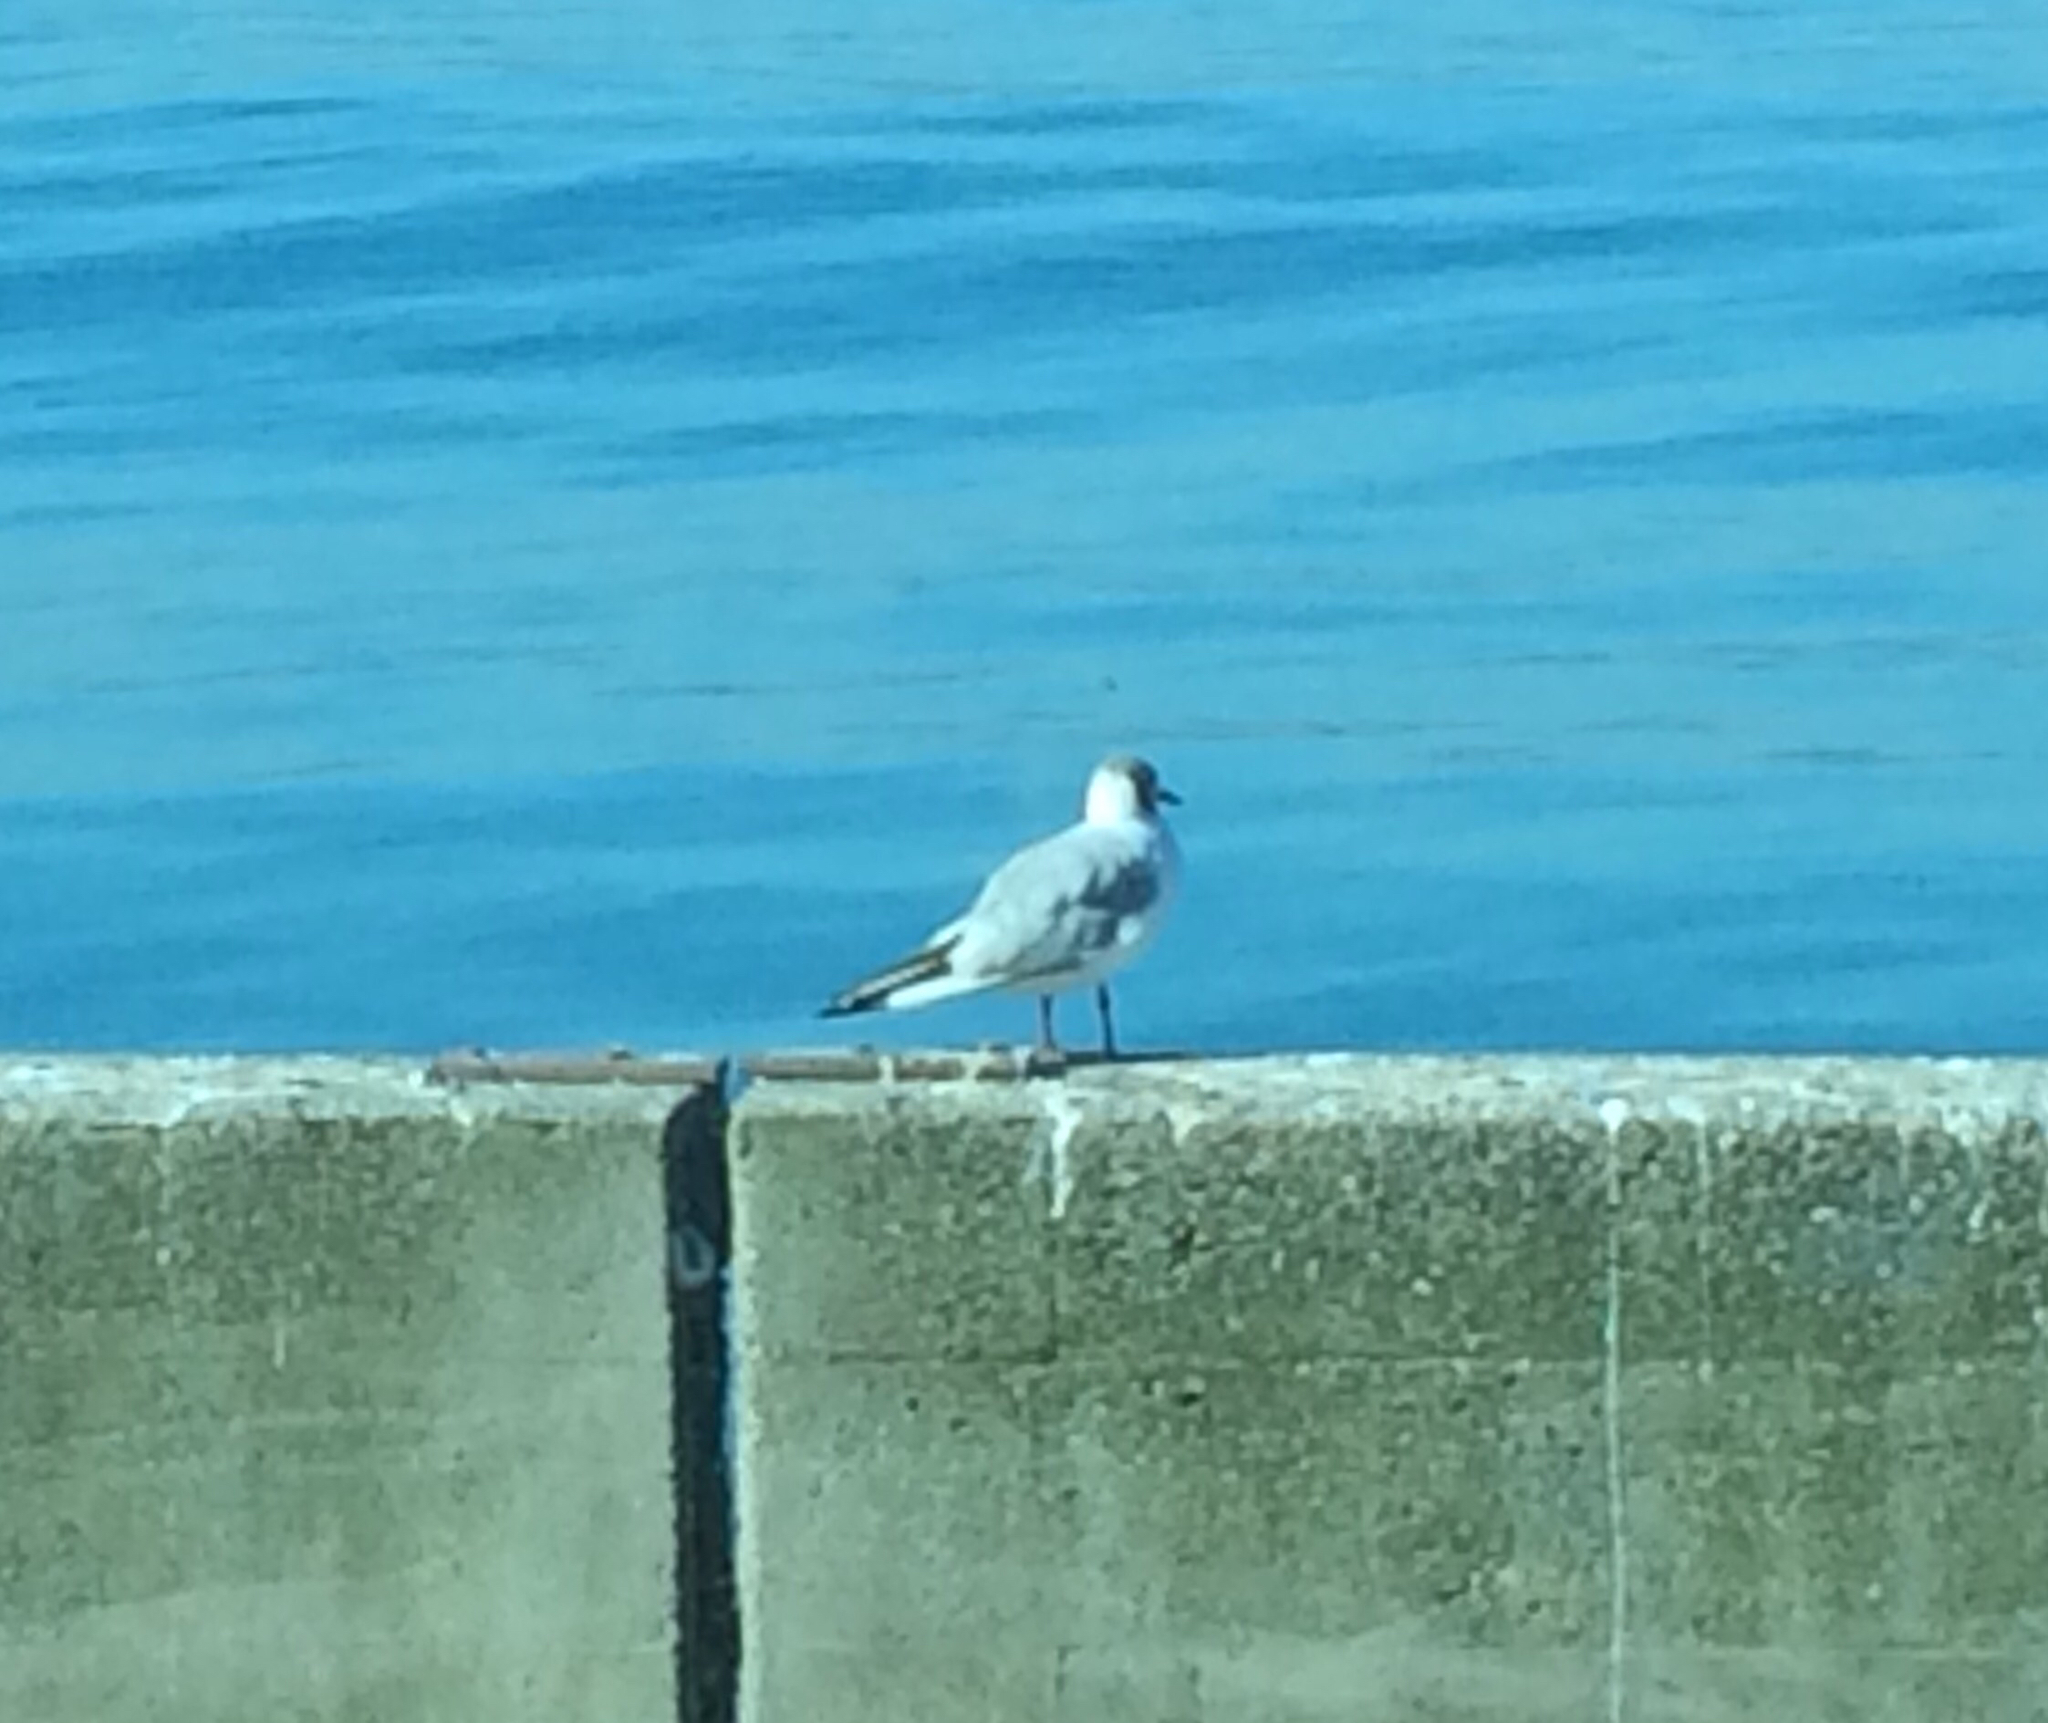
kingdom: Animalia
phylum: Chordata
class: Aves
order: Charadriiformes
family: Laridae
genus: Chroicocephalus
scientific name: Chroicocephalus ridibundus
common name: Black-headed gull
